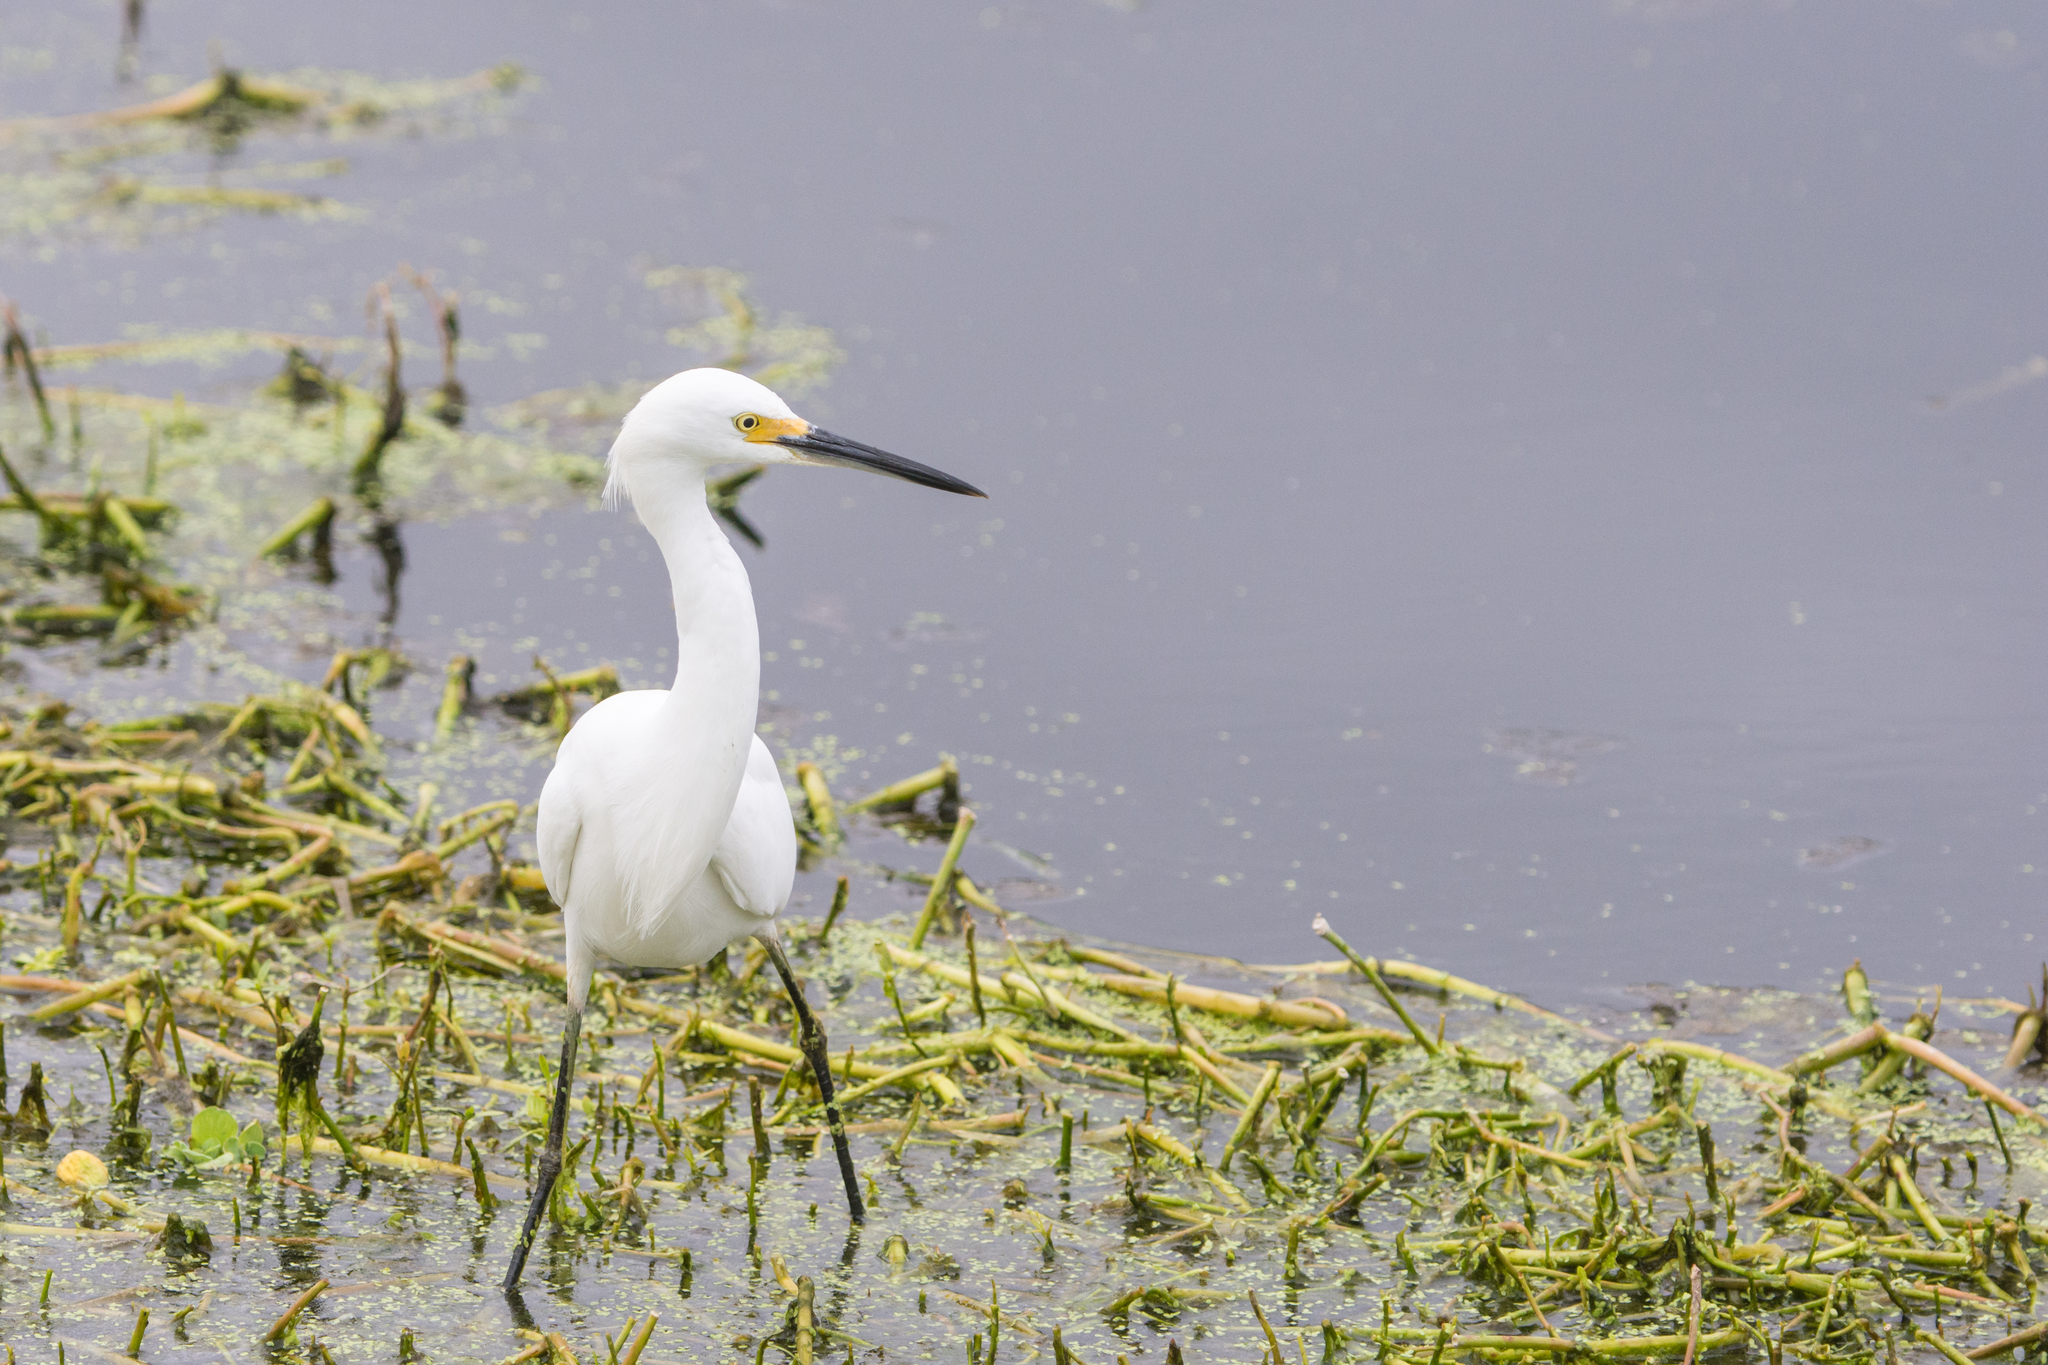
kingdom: Animalia
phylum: Chordata
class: Aves
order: Pelecaniformes
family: Ardeidae
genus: Egretta
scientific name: Egretta thula
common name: Snowy egret
